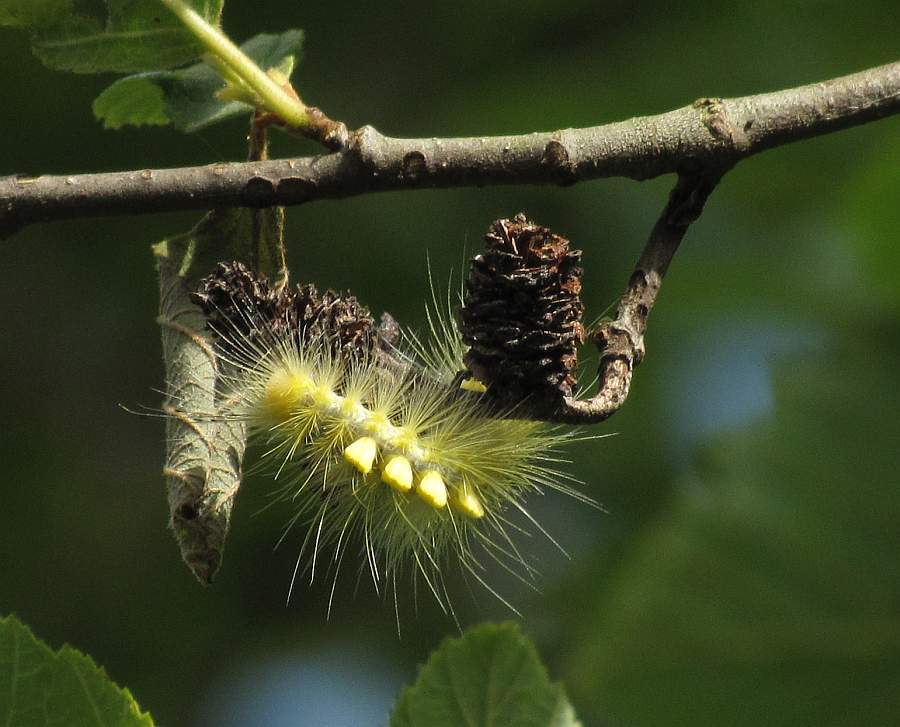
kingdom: Animalia
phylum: Arthropoda
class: Insecta
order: Lepidoptera
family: Erebidae
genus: Orgyia
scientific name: Orgyia definita
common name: Definite tussock moth
